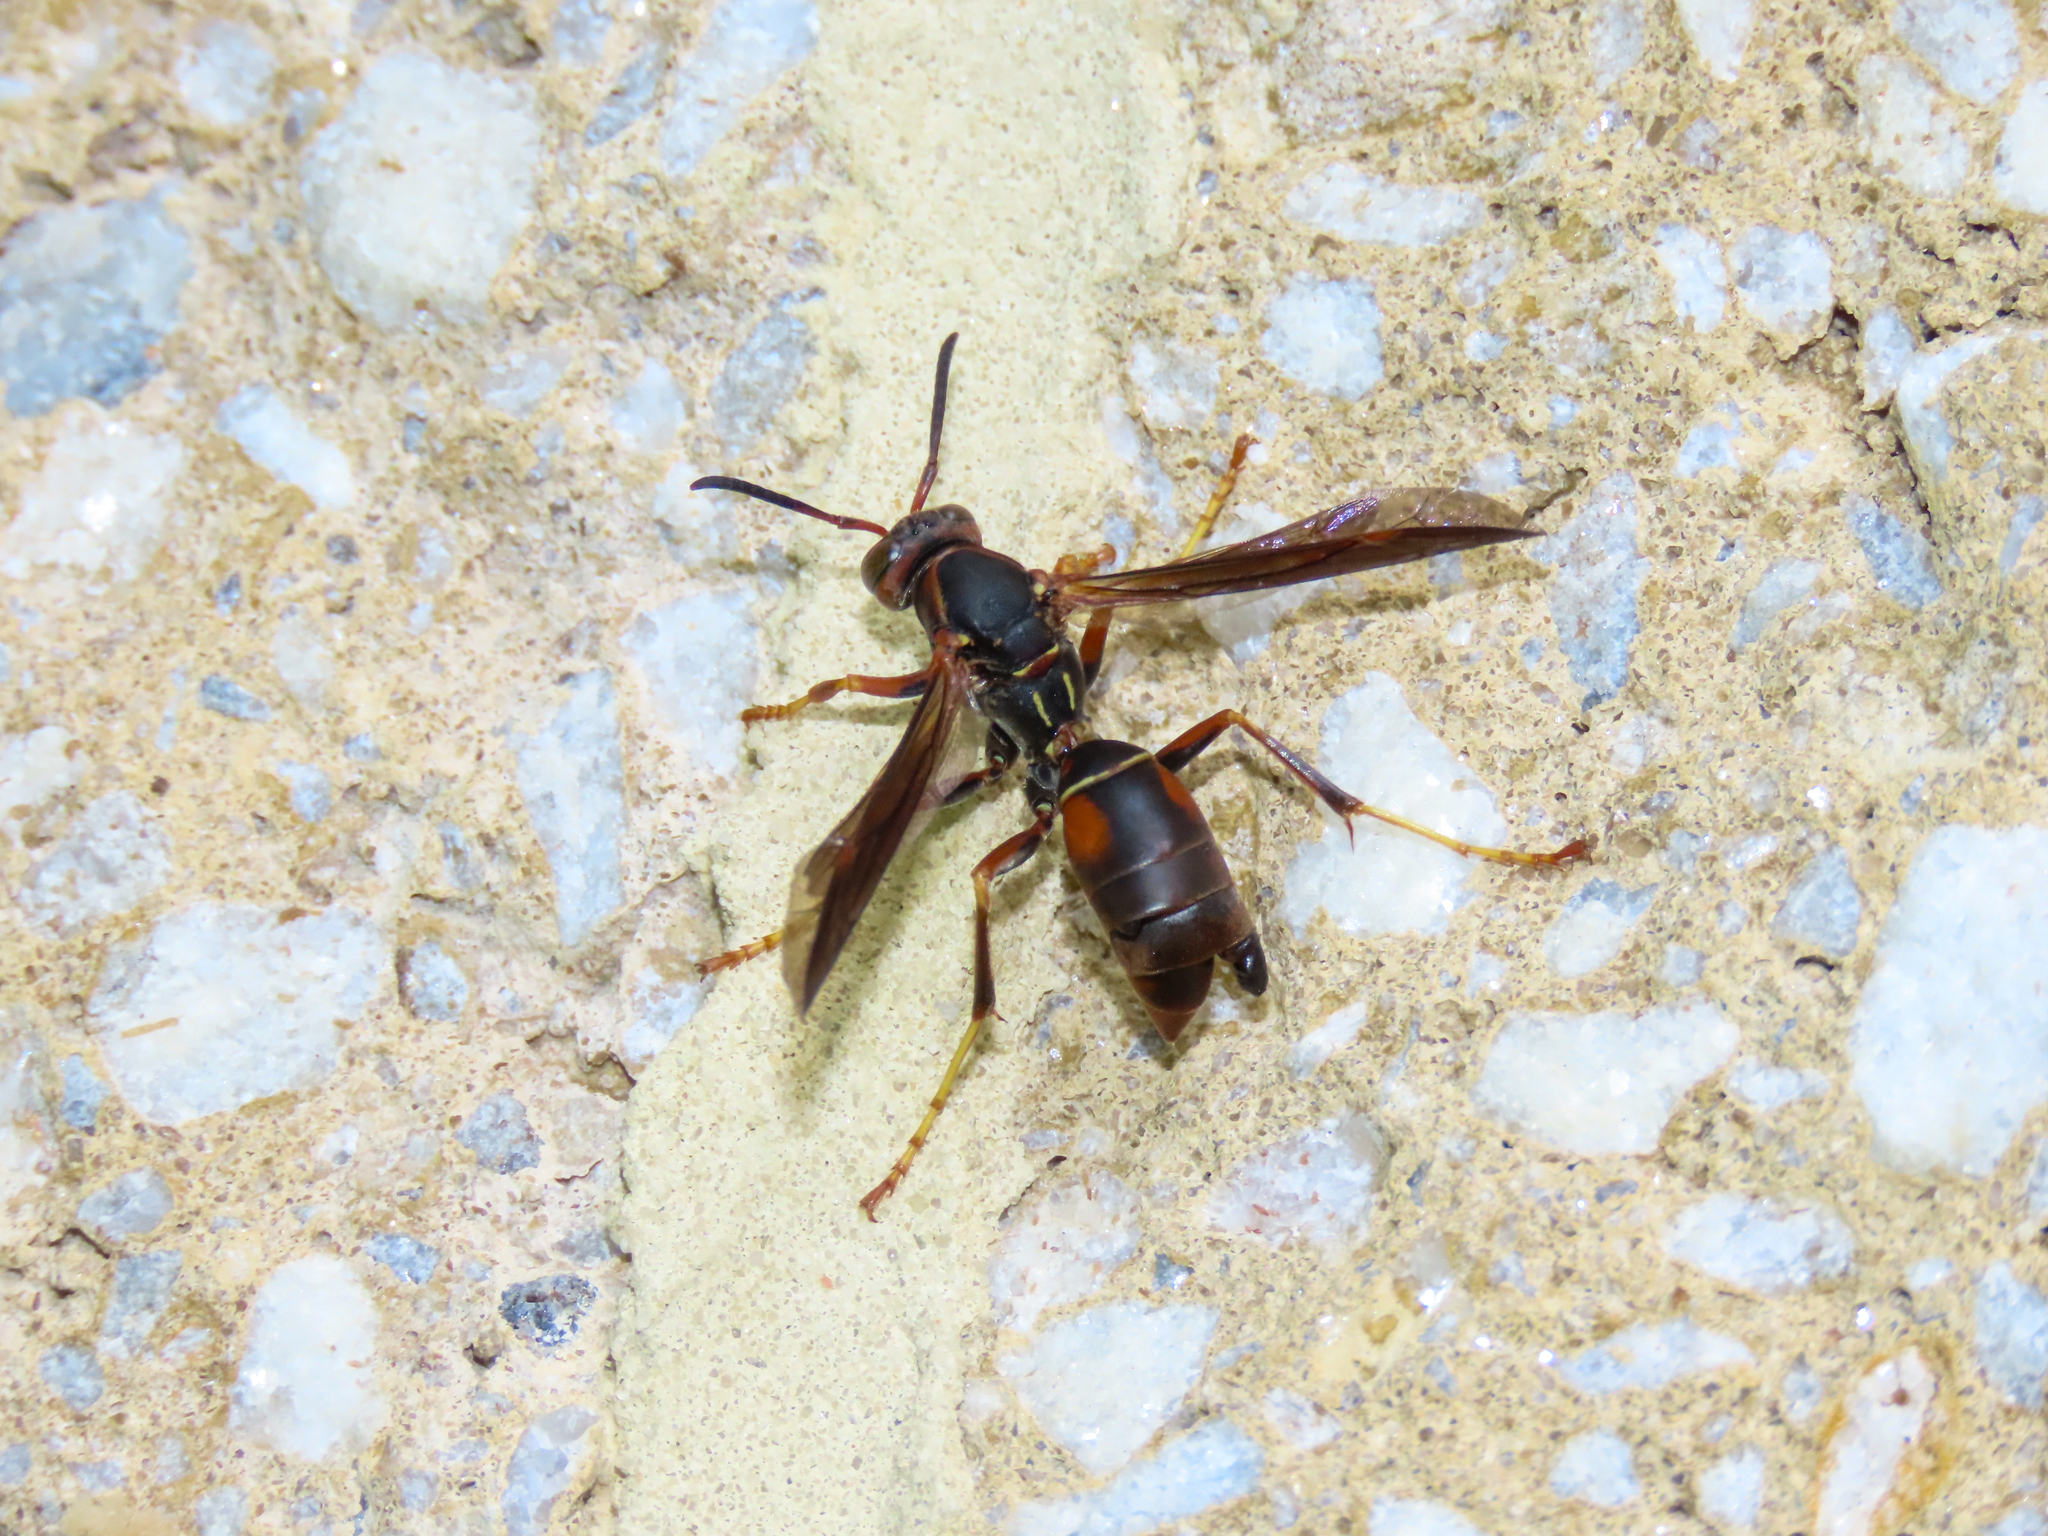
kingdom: Animalia
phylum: Arthropoda
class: Insecta
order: Hymenoptera
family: Eumenidae
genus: Polistes
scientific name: Polistes fuscatus
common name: Dark paper wasp
